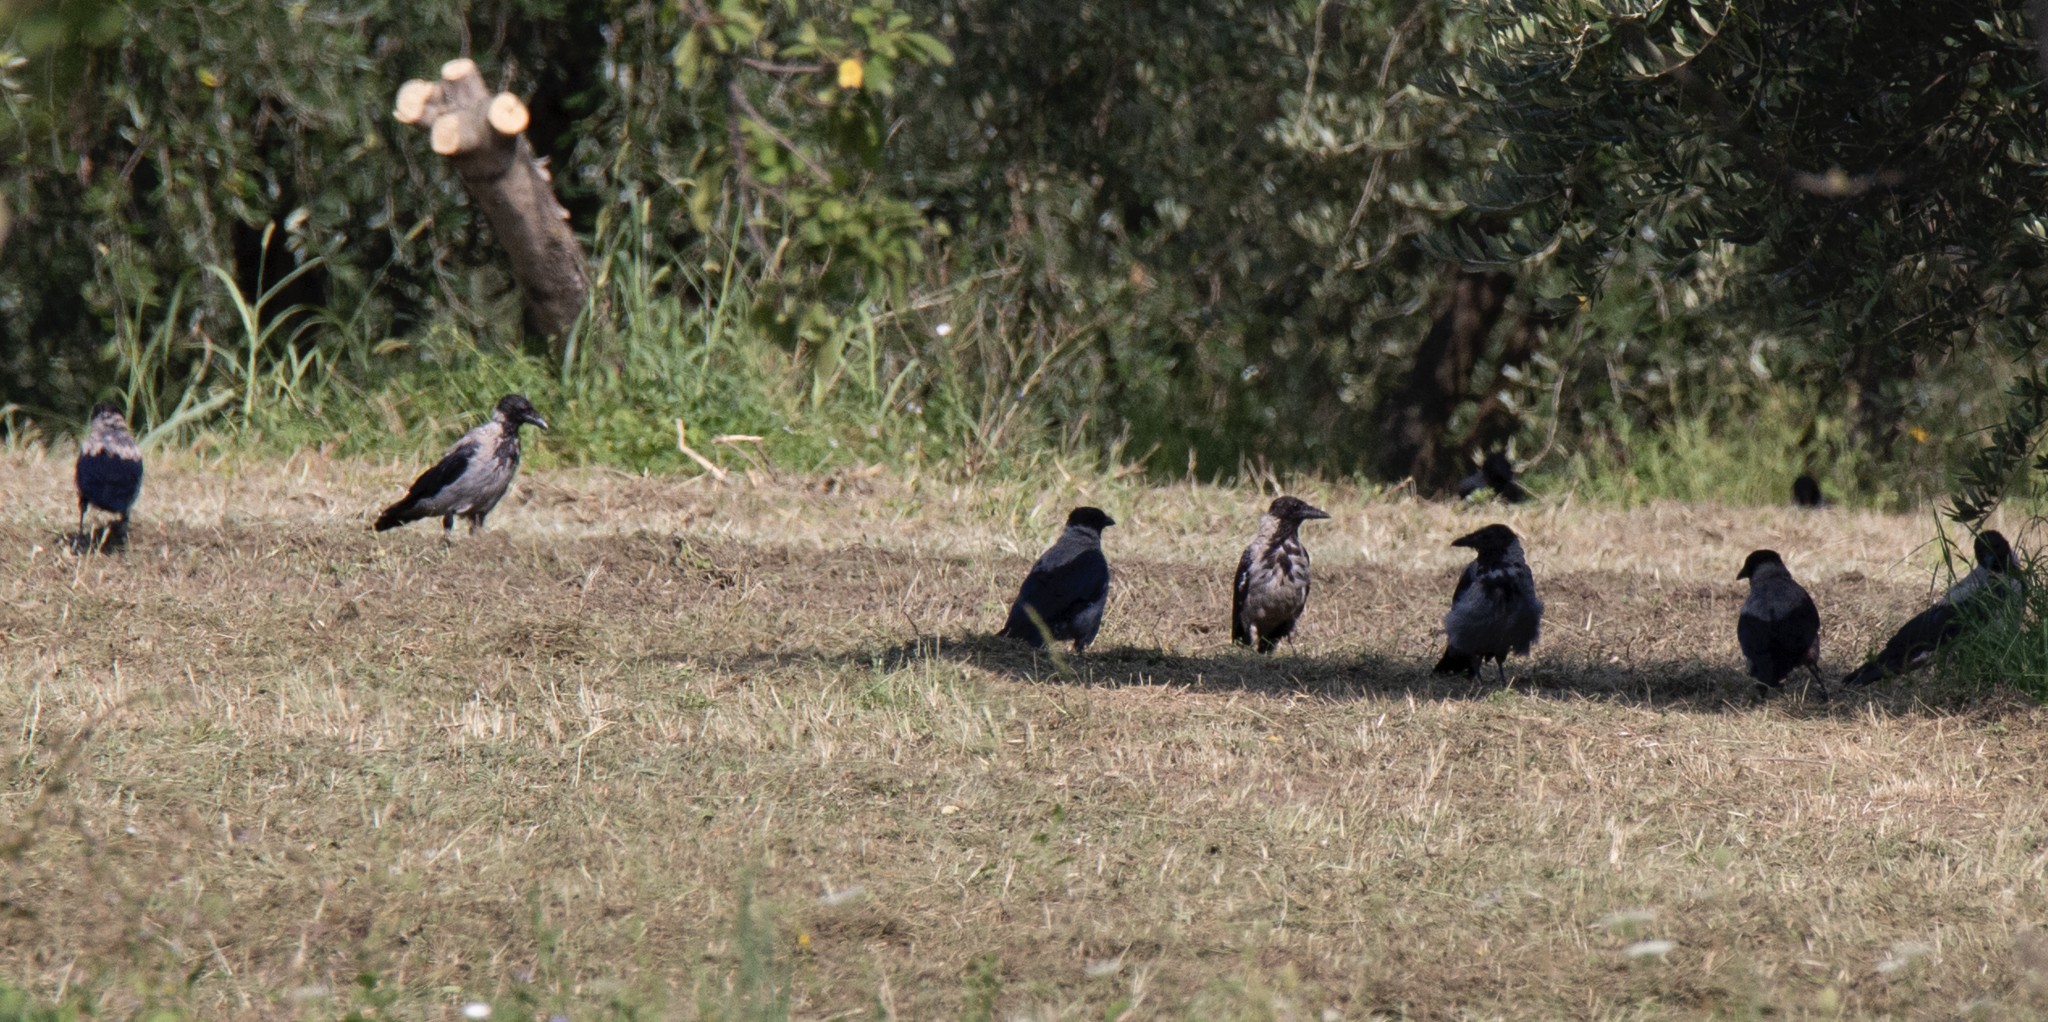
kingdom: Animalia
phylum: Chordata
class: Aves
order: Passeriformes
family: Corvidae
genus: Corvus
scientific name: Corvus cornix
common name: Hooded crow
